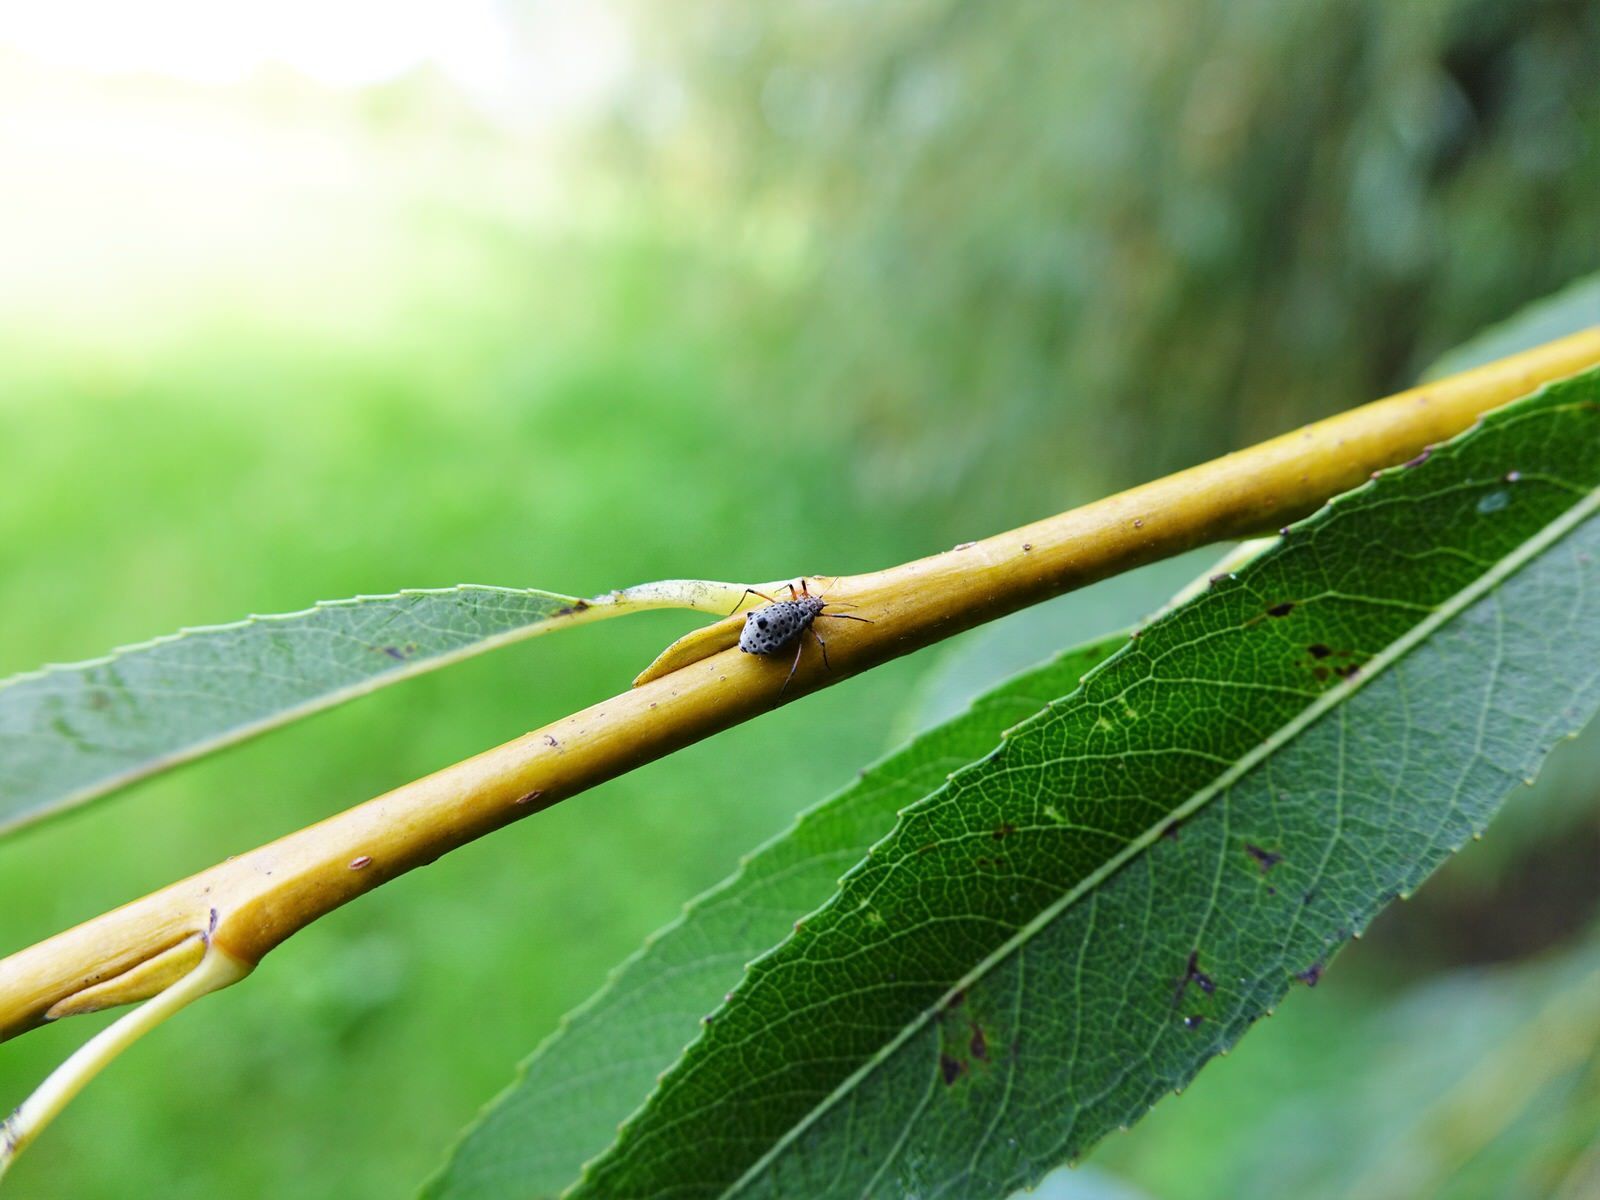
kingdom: Animalia
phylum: Arthropoda
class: Insecta
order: Hemiptera
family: Aphididae
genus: Tuberolachnus
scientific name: Tuberolachnus salignus
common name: Giant willow aphid
